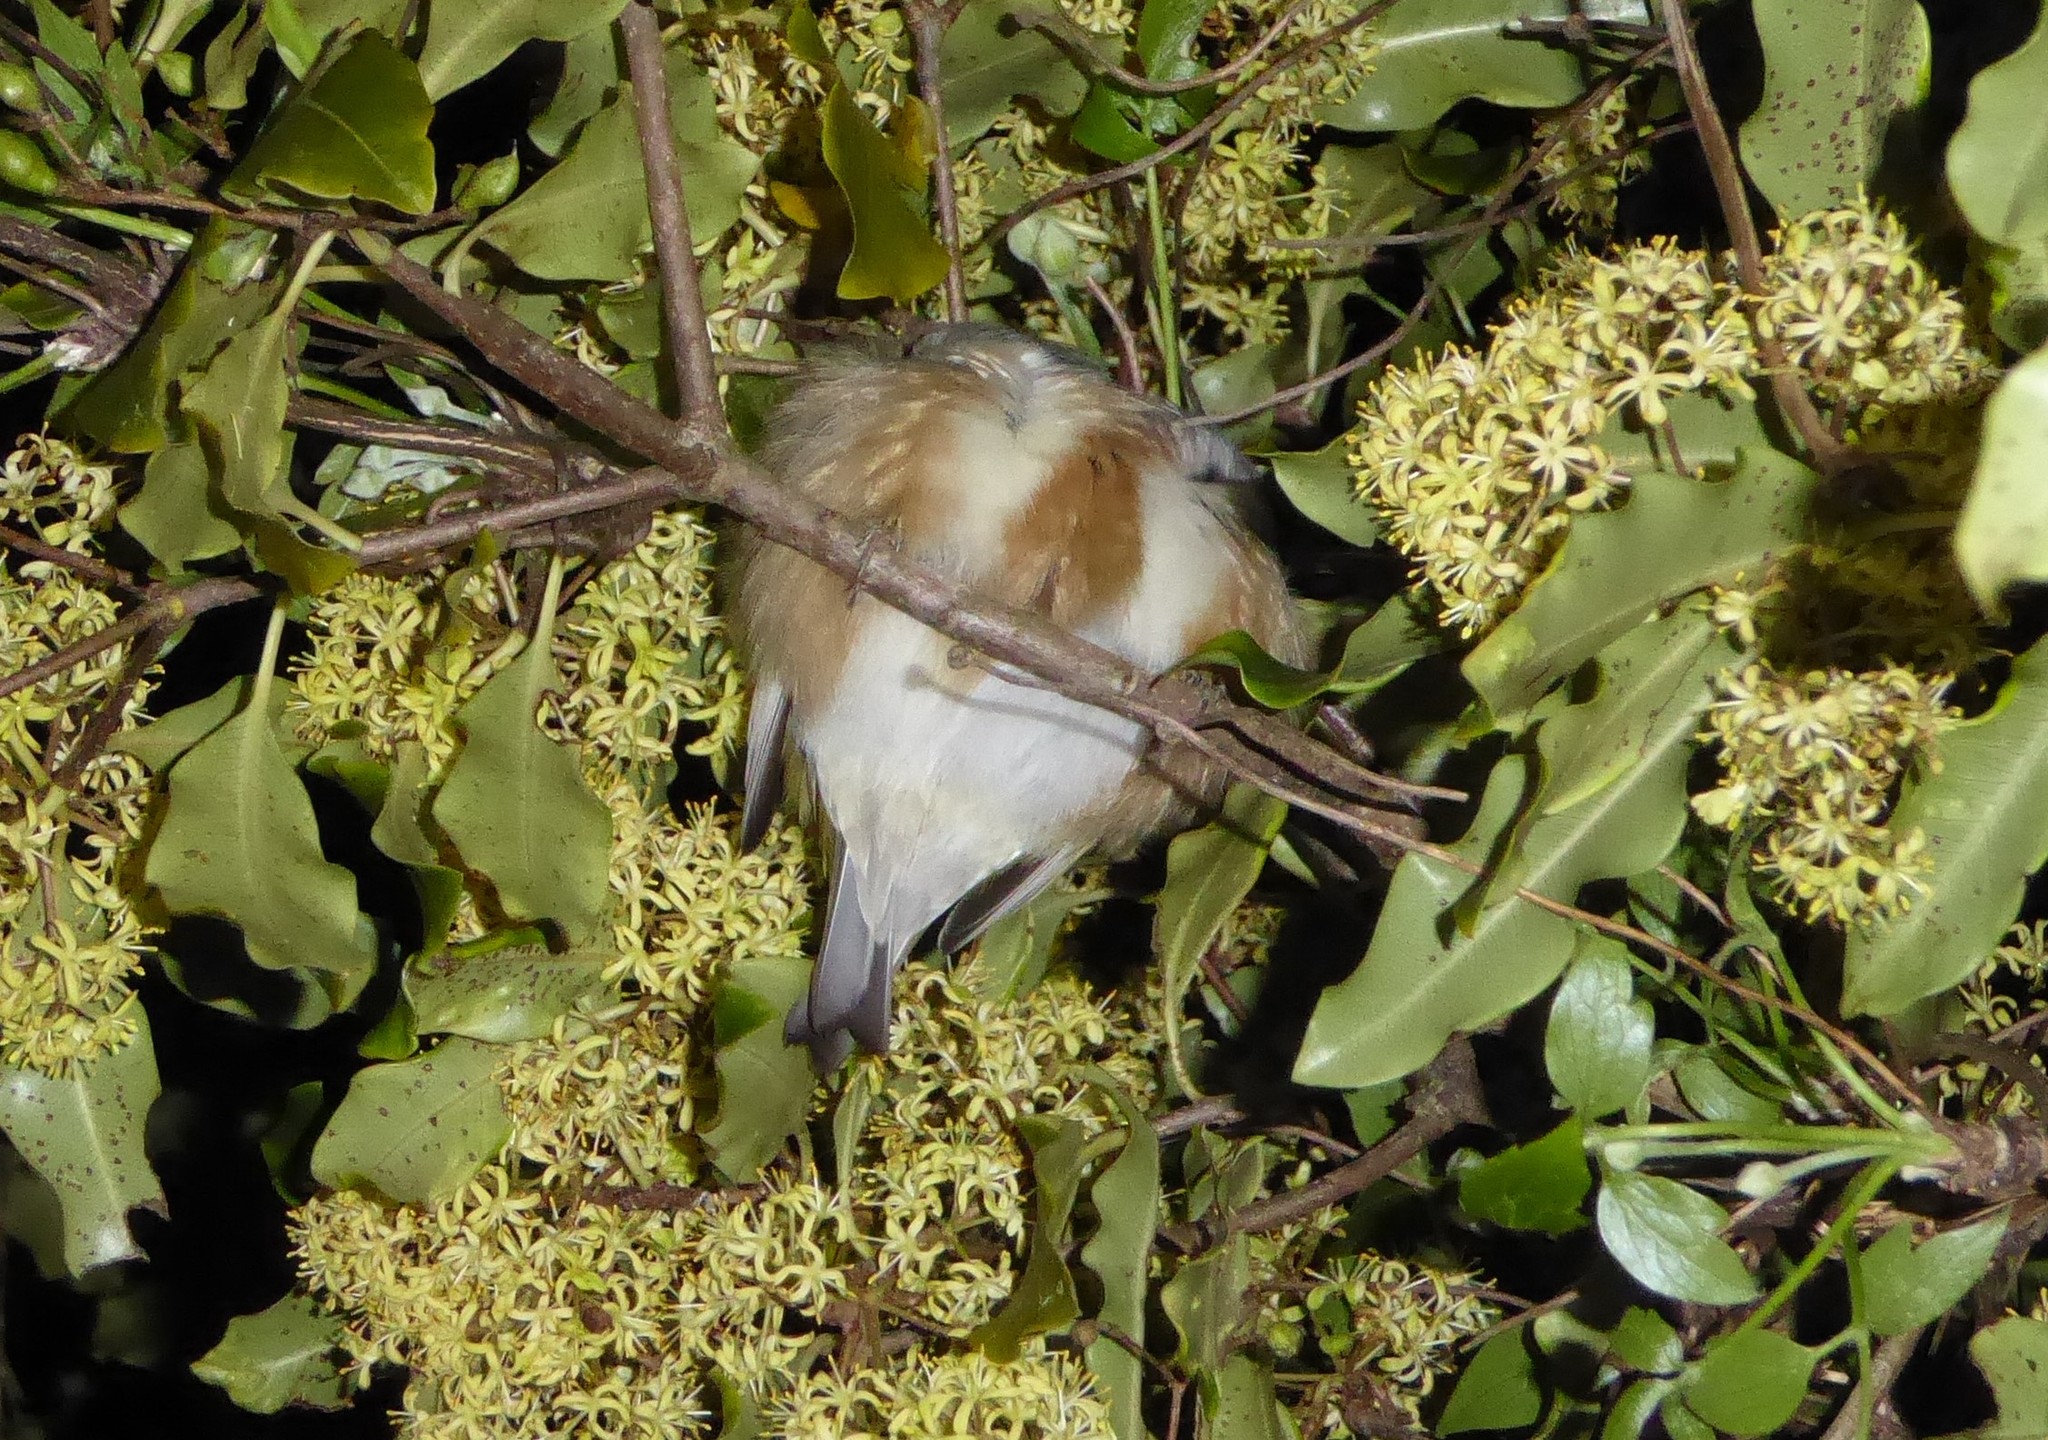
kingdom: Animalia
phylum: Chordata
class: Aves
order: Passeriformes
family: Zosteropidae
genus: Zosterops
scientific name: Zosterops lateralis
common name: Silvereye
